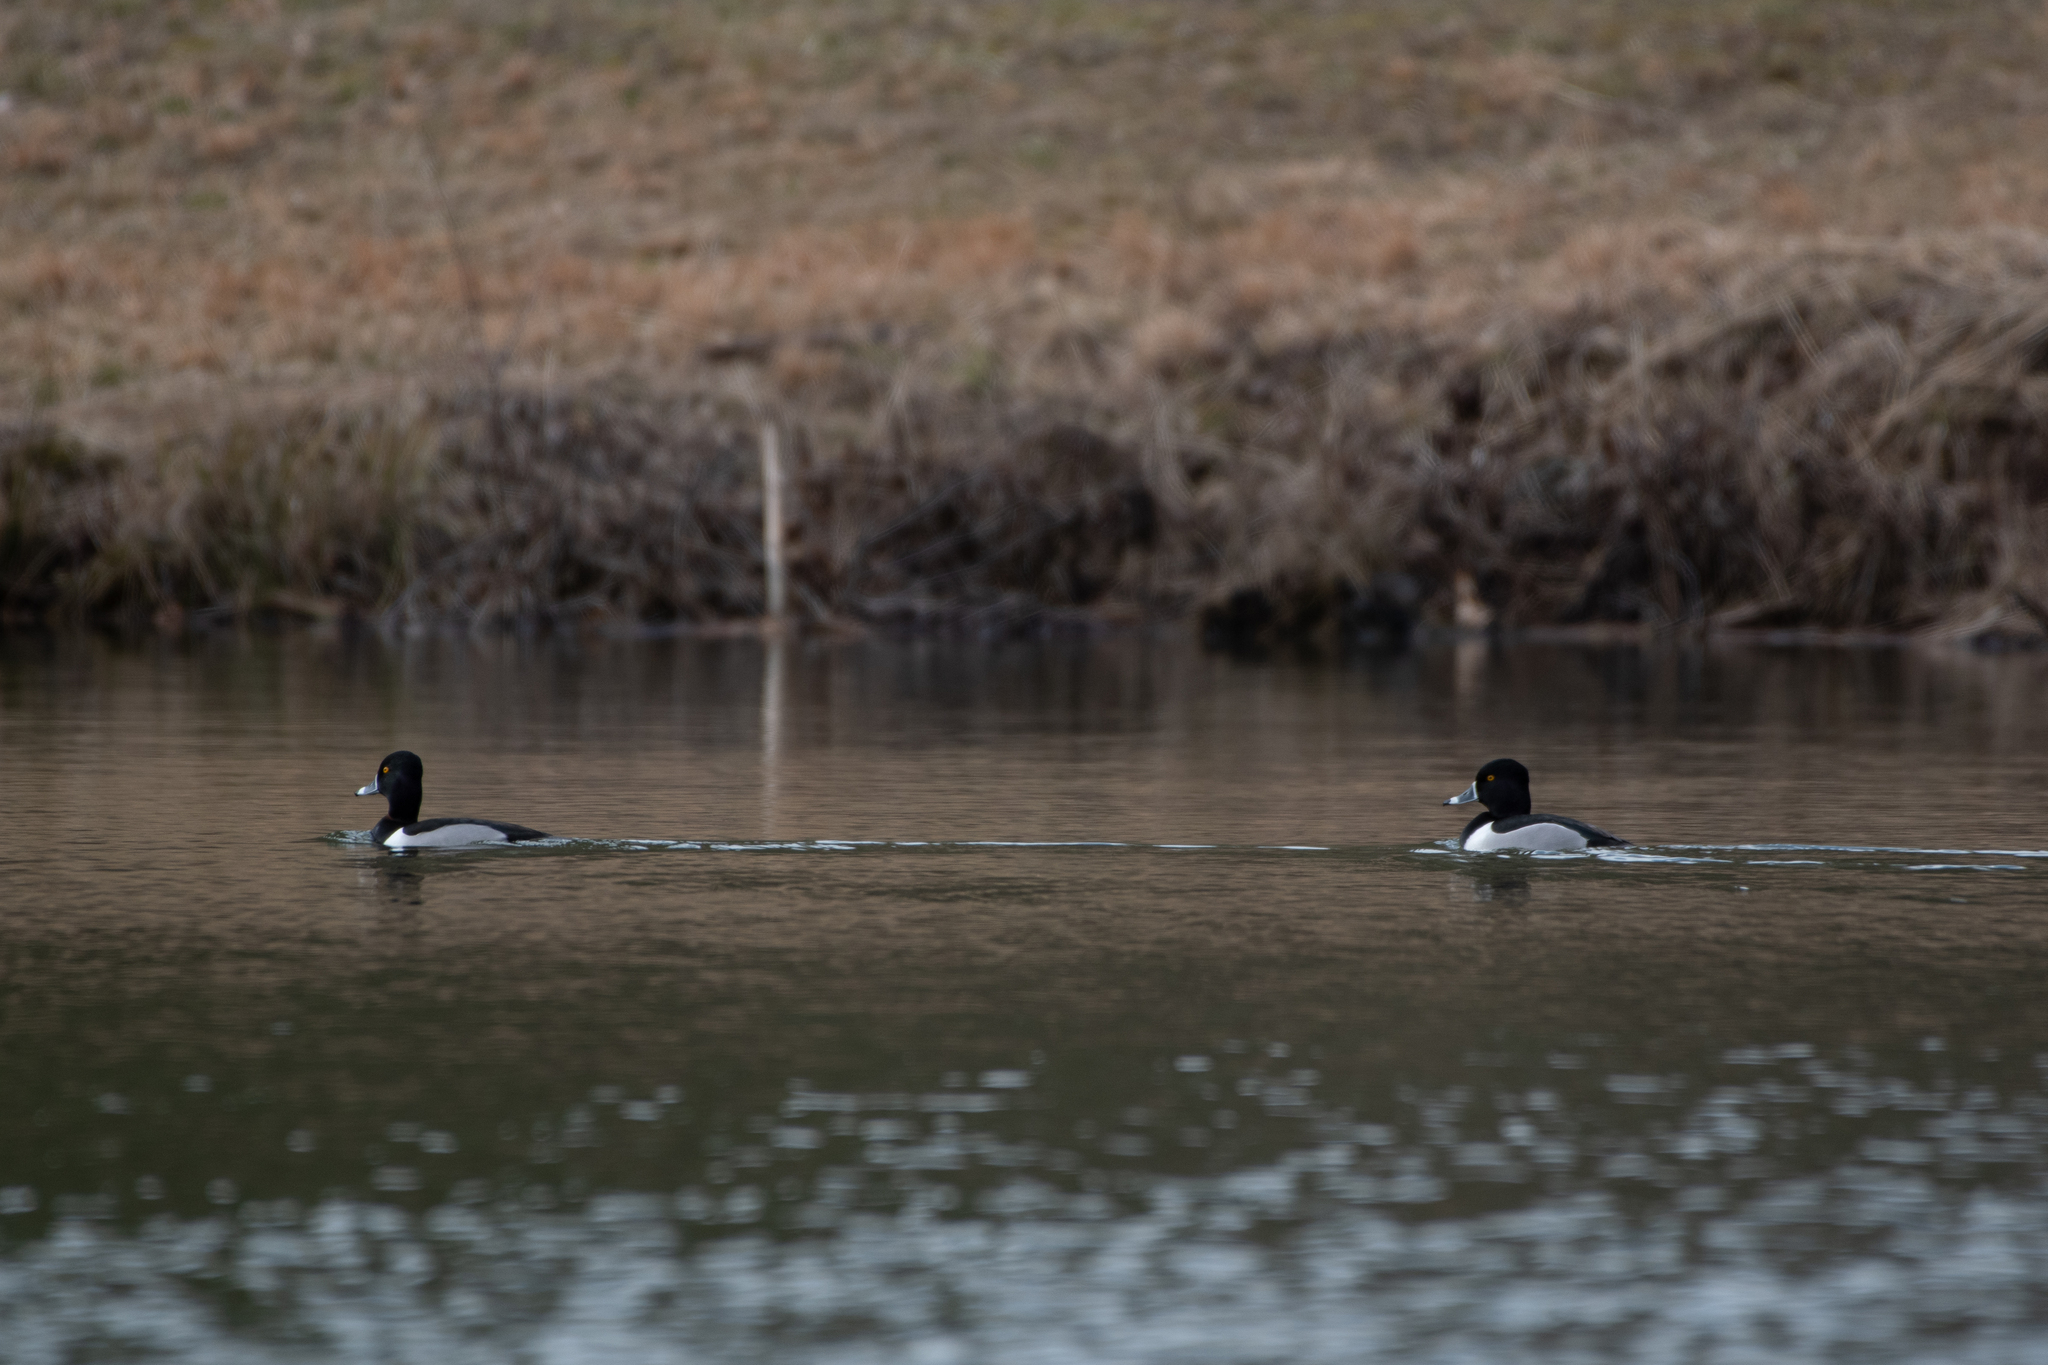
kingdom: Animalia
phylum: Chordata
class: Aves
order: Anseriformes
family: Anatidae
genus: Aythya
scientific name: Aythya collaris
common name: Ring-necked duck
